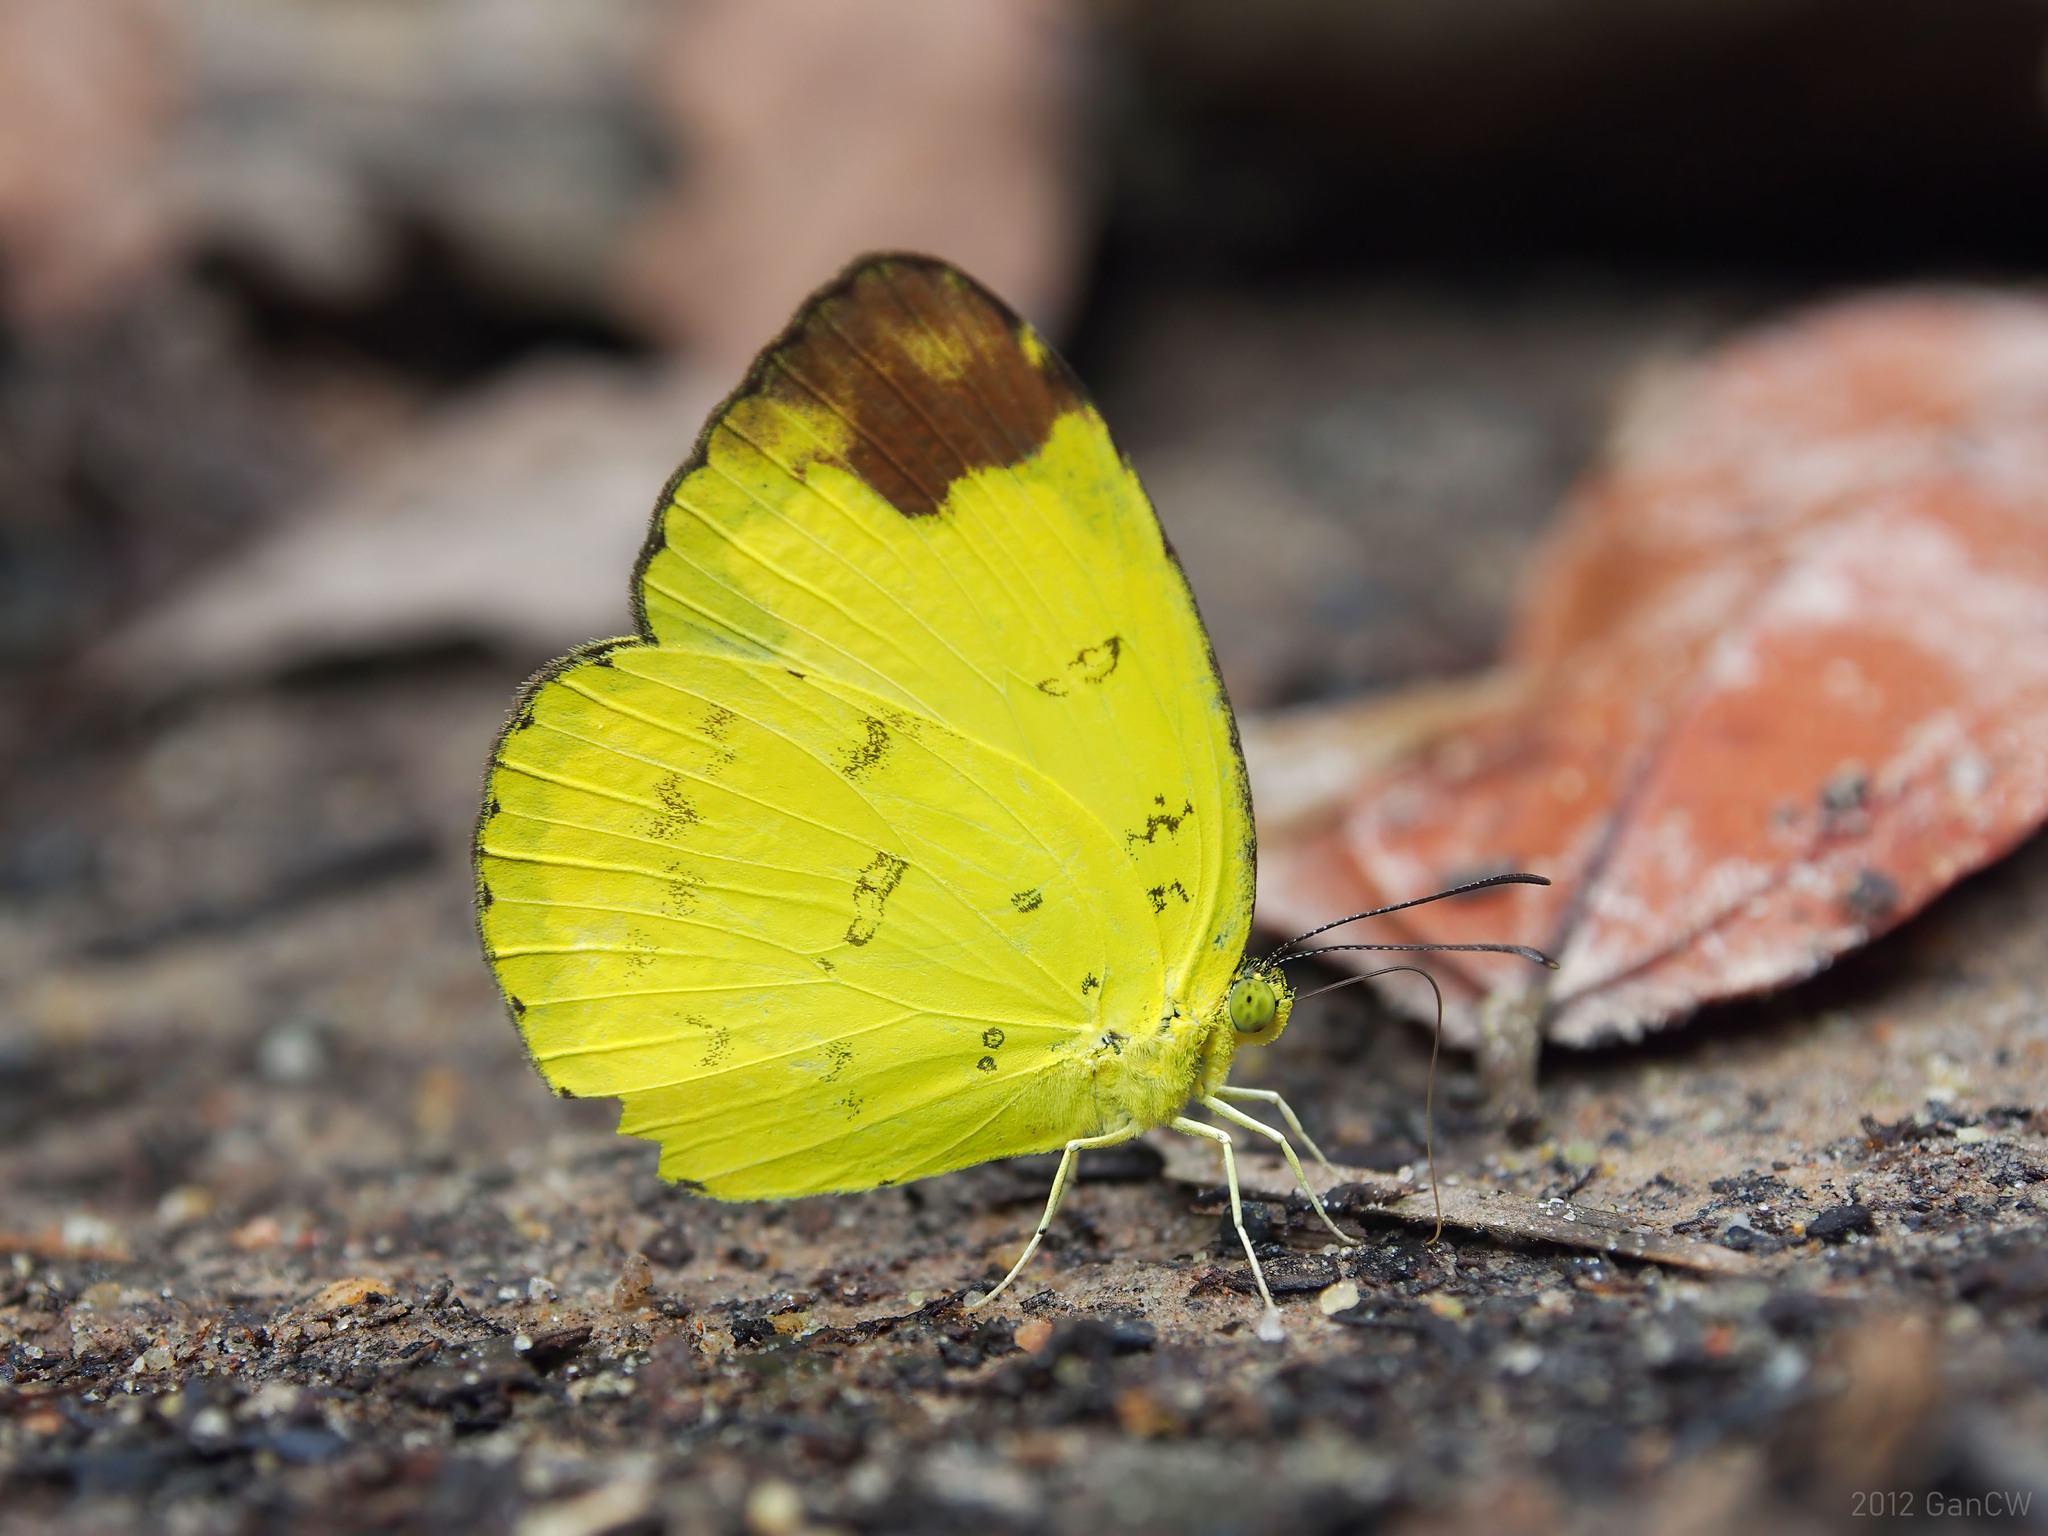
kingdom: Animalia
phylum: Arthropoda
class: Insecta
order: Lepidoptera
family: Pieridae
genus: Eurema
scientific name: Eurema simulatrix
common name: Hill grass yellow
